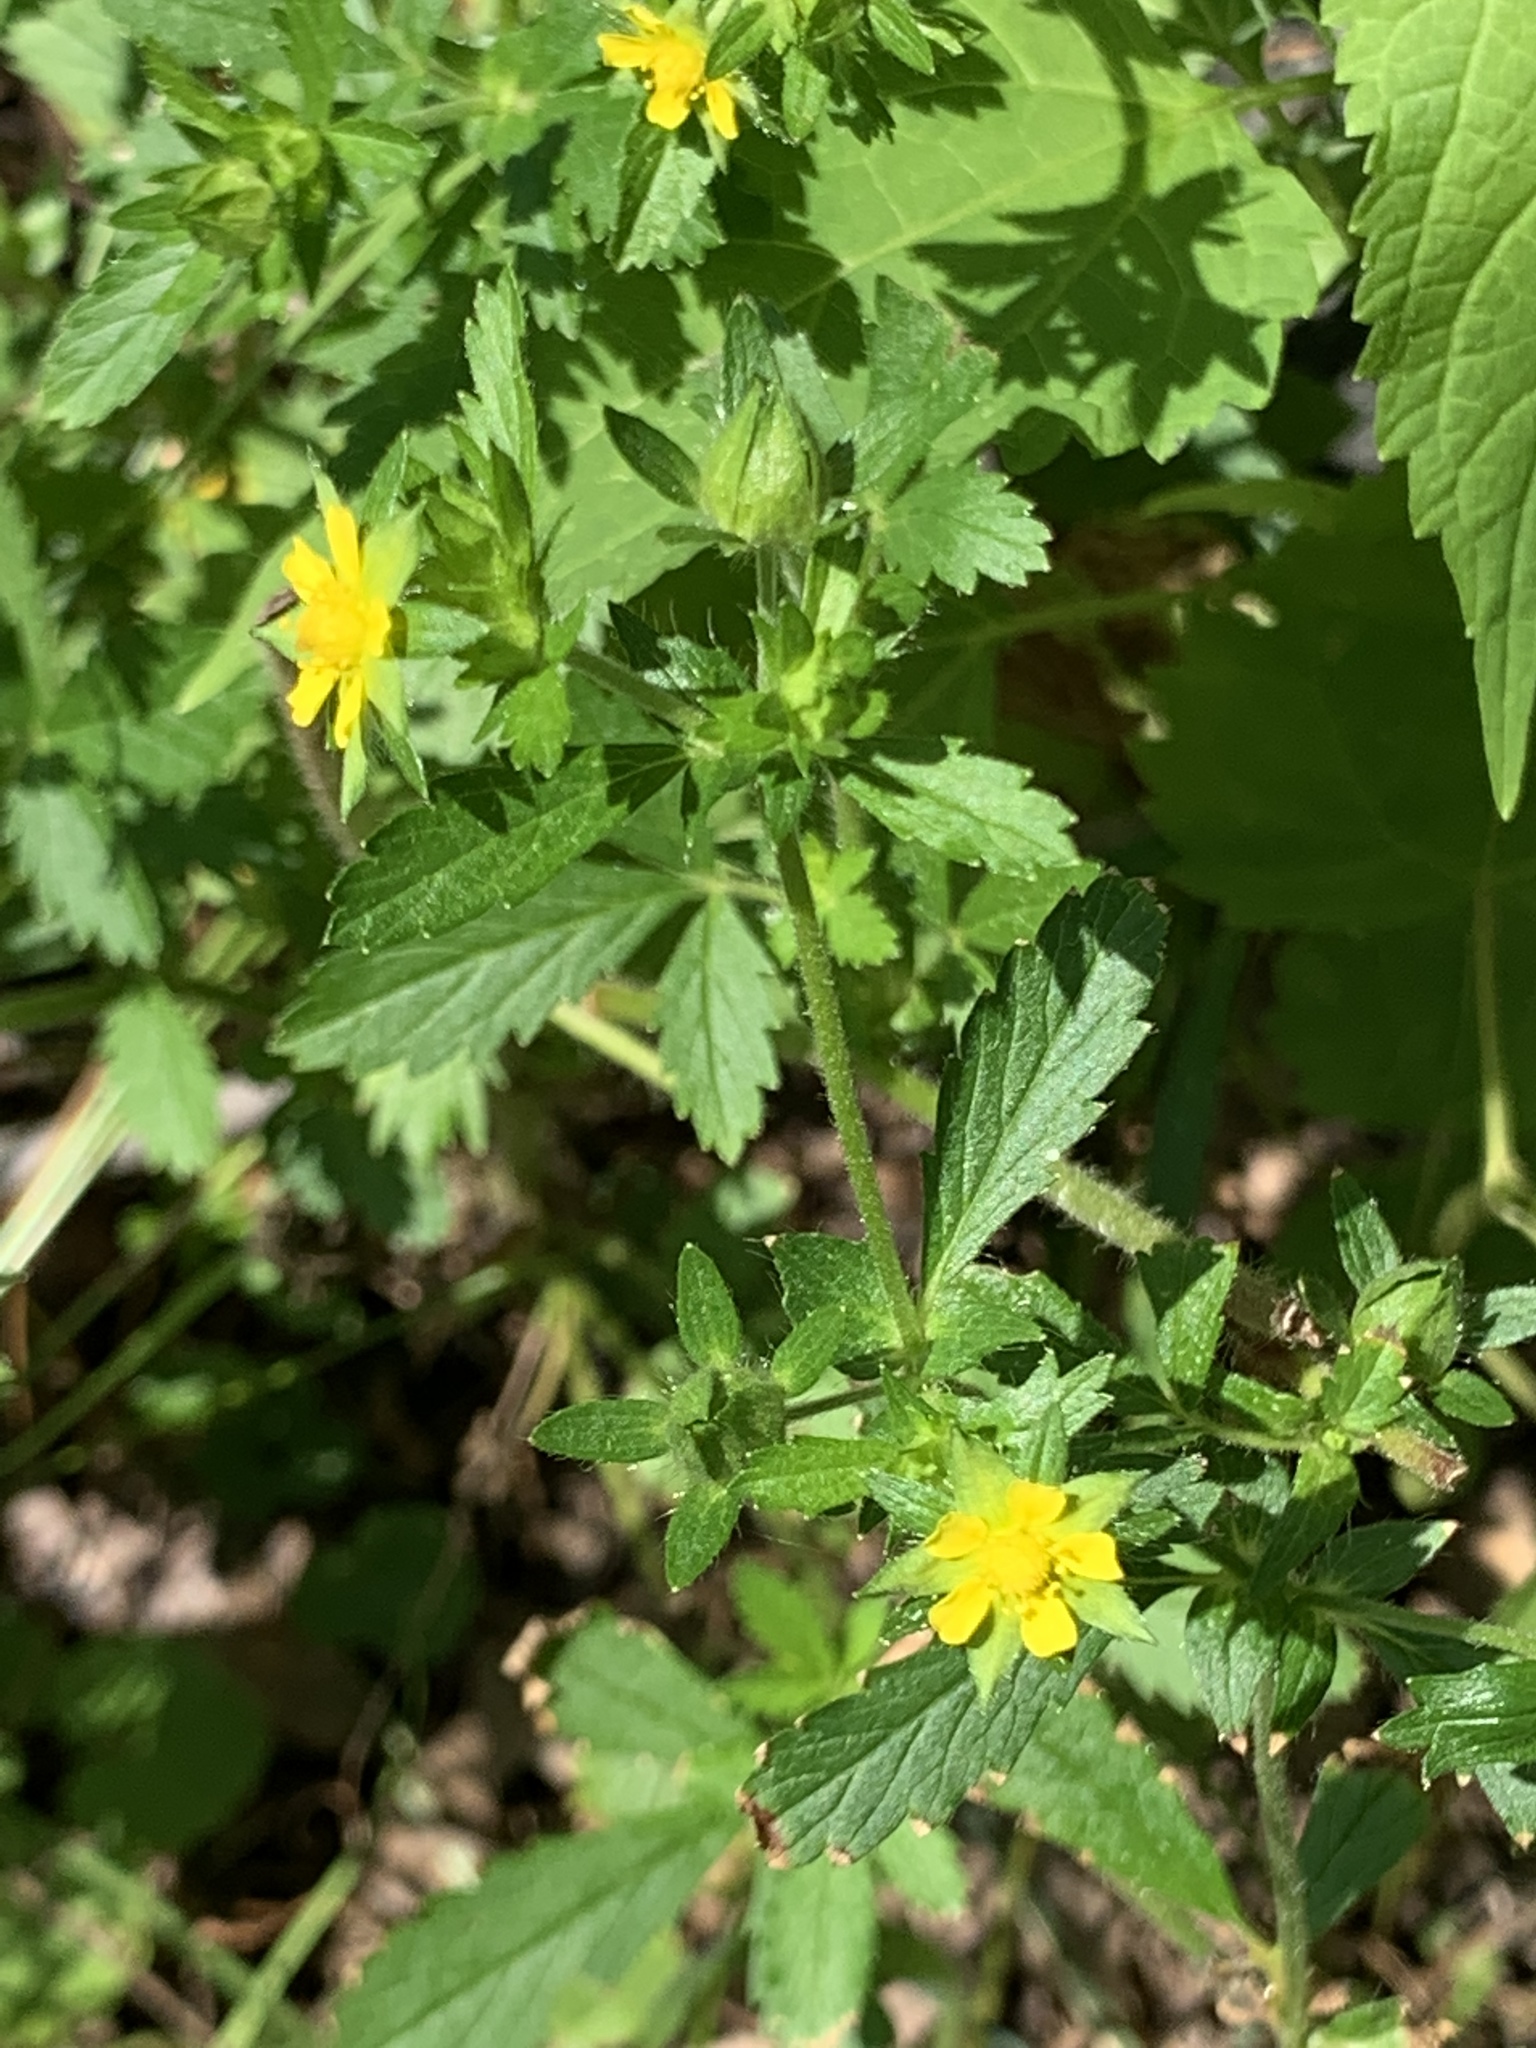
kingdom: Plantae
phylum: Tracheophyta
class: Magnoliopsida
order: Rosales
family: Rosaceae
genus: Potentilla
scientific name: Potentilla norvegica
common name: Ternate-leaved cinquefoil
